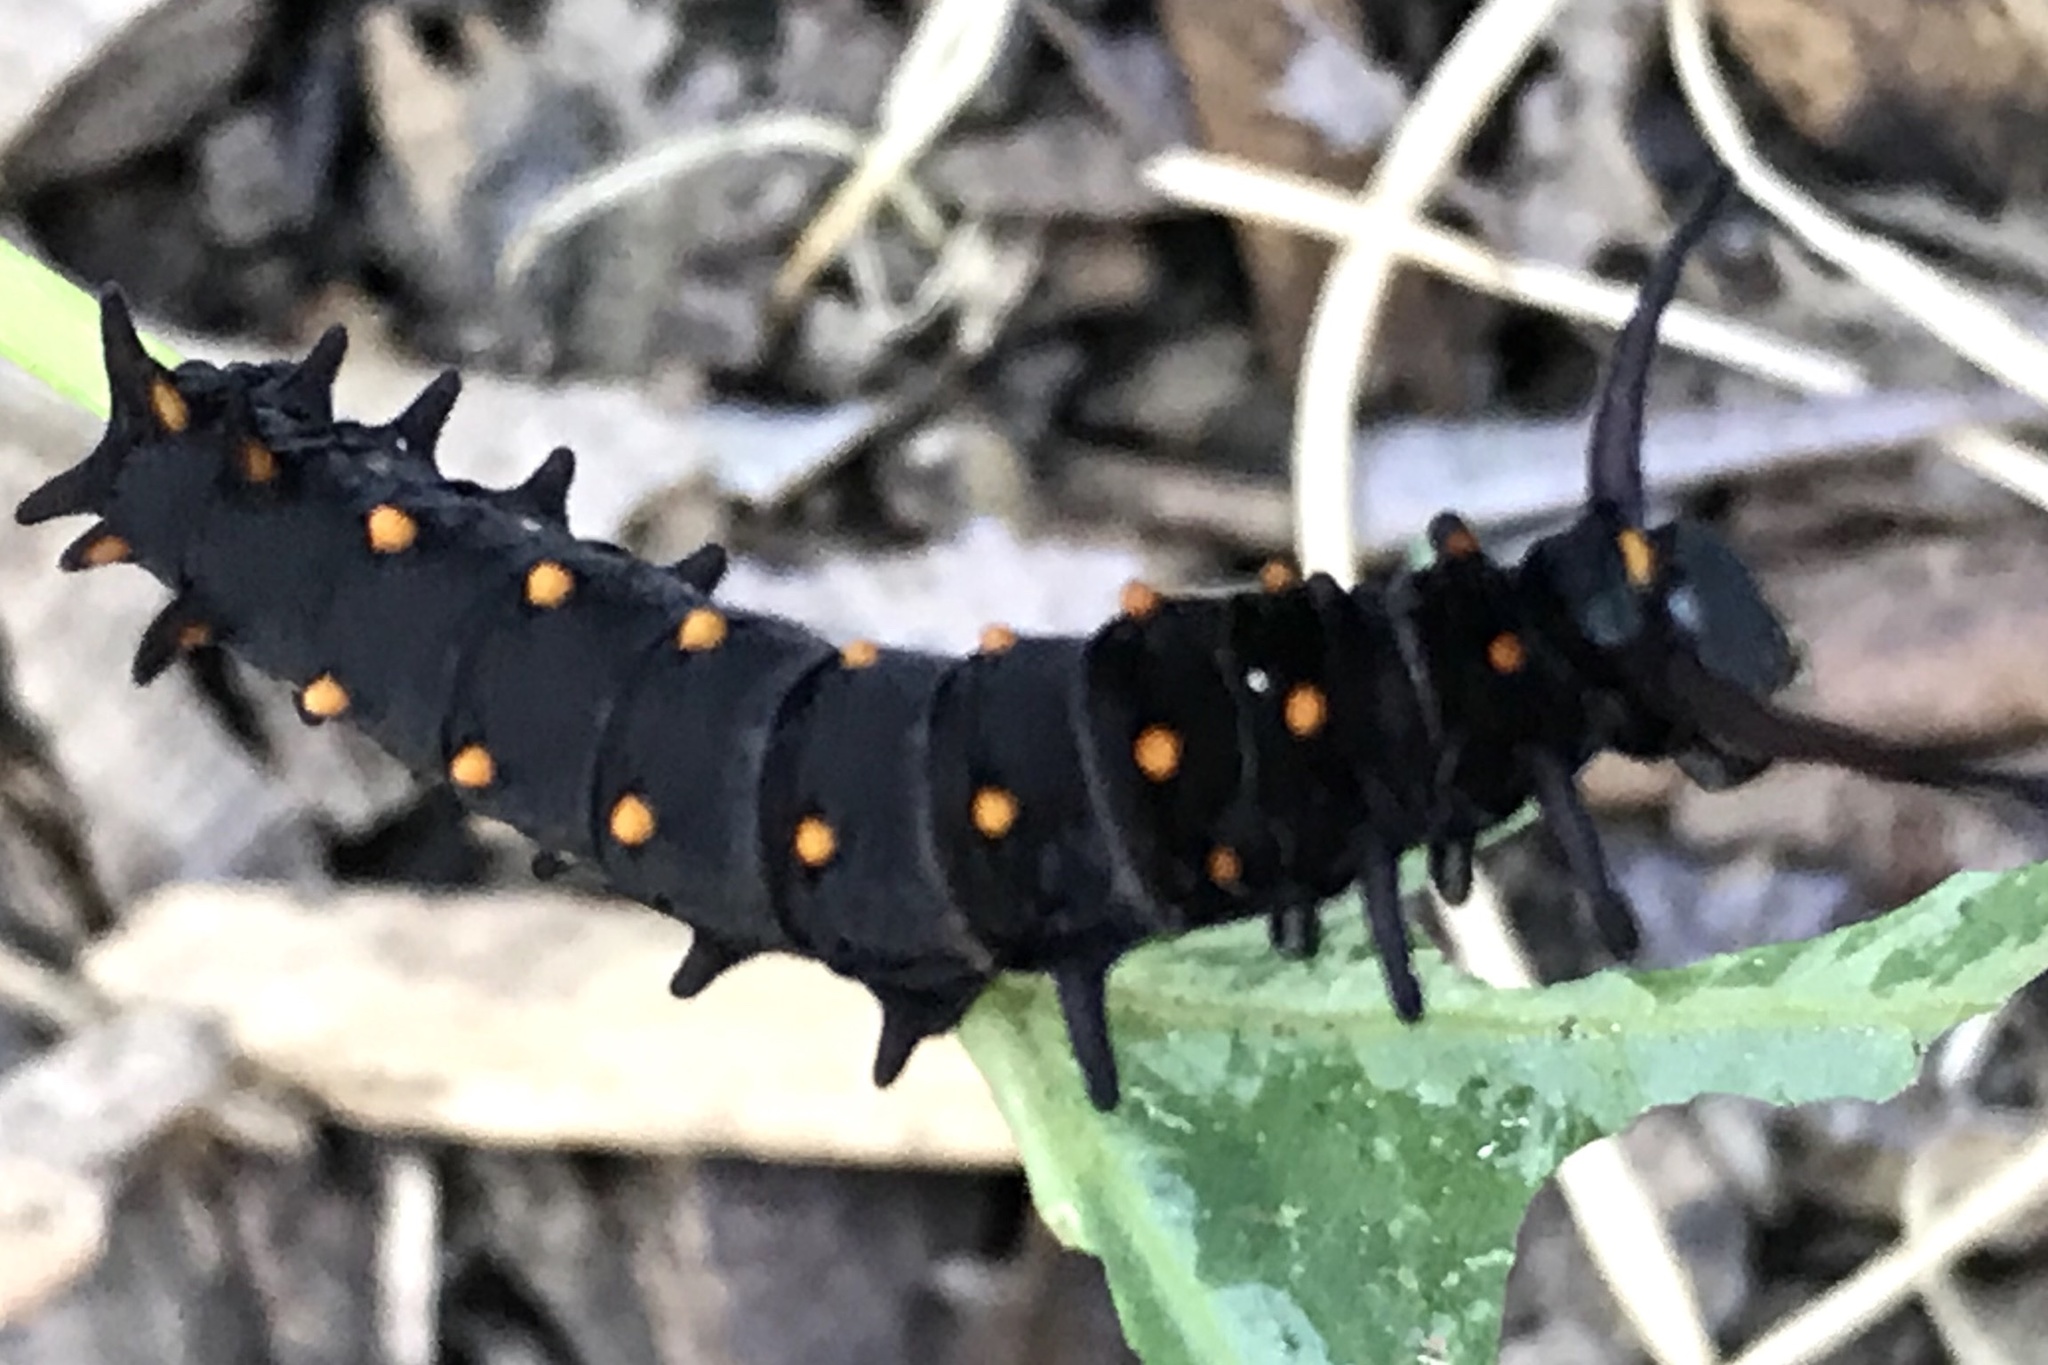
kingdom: Animalia
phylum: Arthropoda
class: Insecta
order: Lepidoptera
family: Papilionidae
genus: Battus
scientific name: Battus philenor
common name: Pipevine swallowtail
